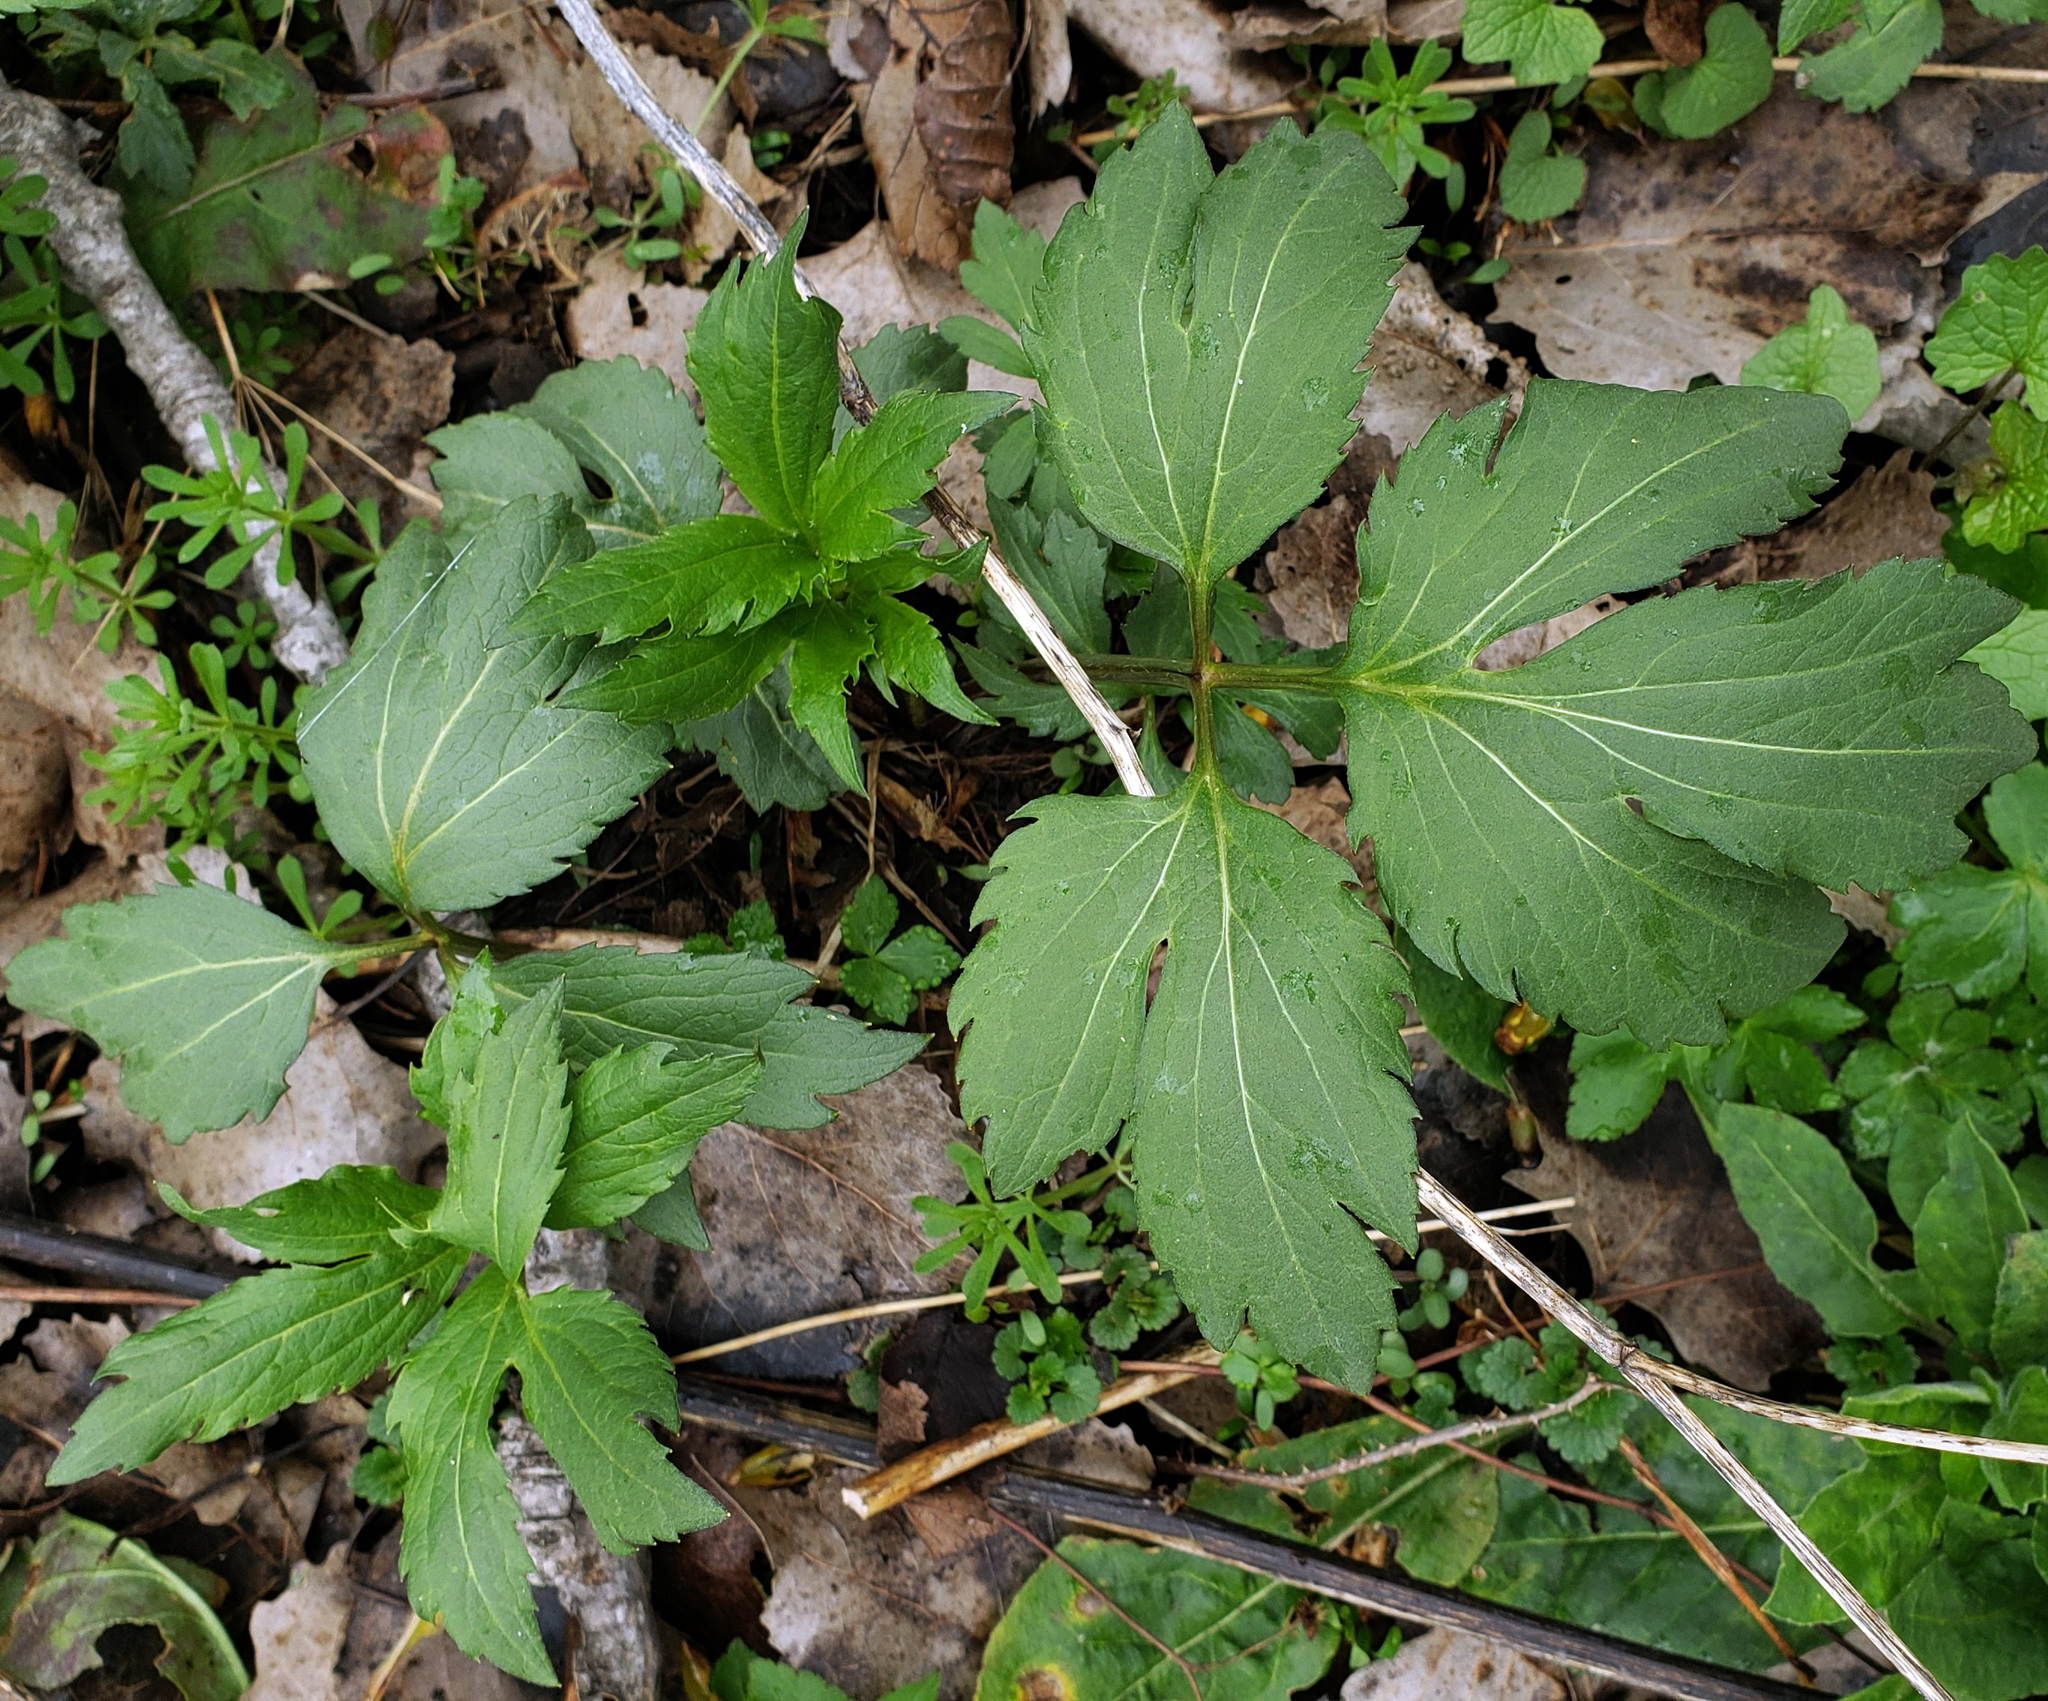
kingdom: Plantae
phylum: Tracheophyta
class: Magnoliopsida
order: Asterales
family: Asteraceae
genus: Rudbeckia
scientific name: Rudbeckia laciniata
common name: Coneflower
